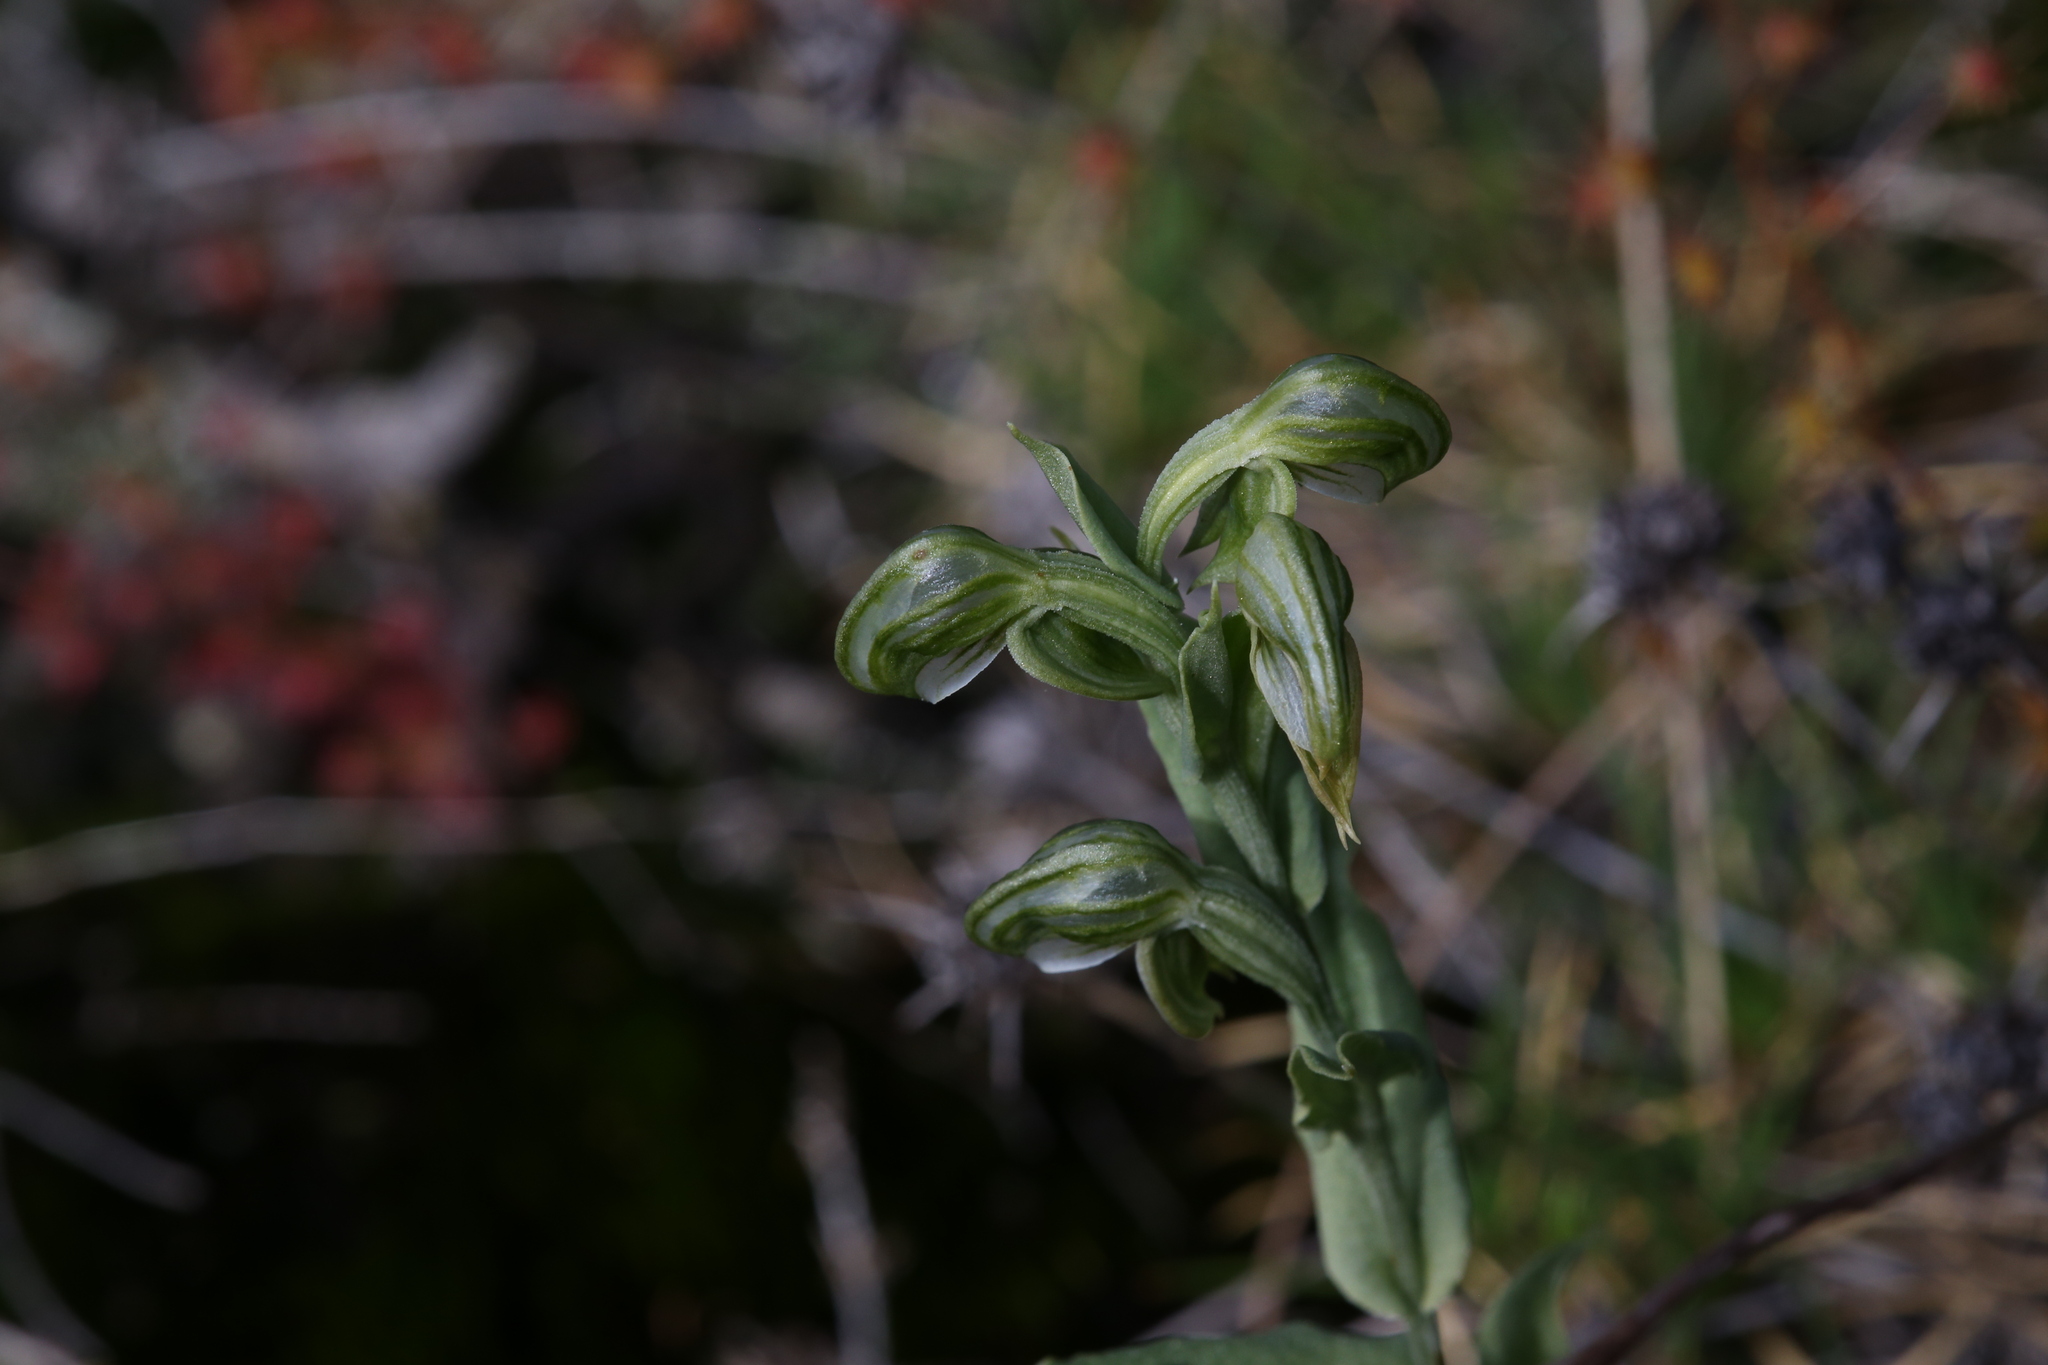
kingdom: Plantae
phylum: Tracheophyta
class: Liliopsida
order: Asparagales
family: Orchidaceae
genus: Pterostylis
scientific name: Pterostylis vittata
